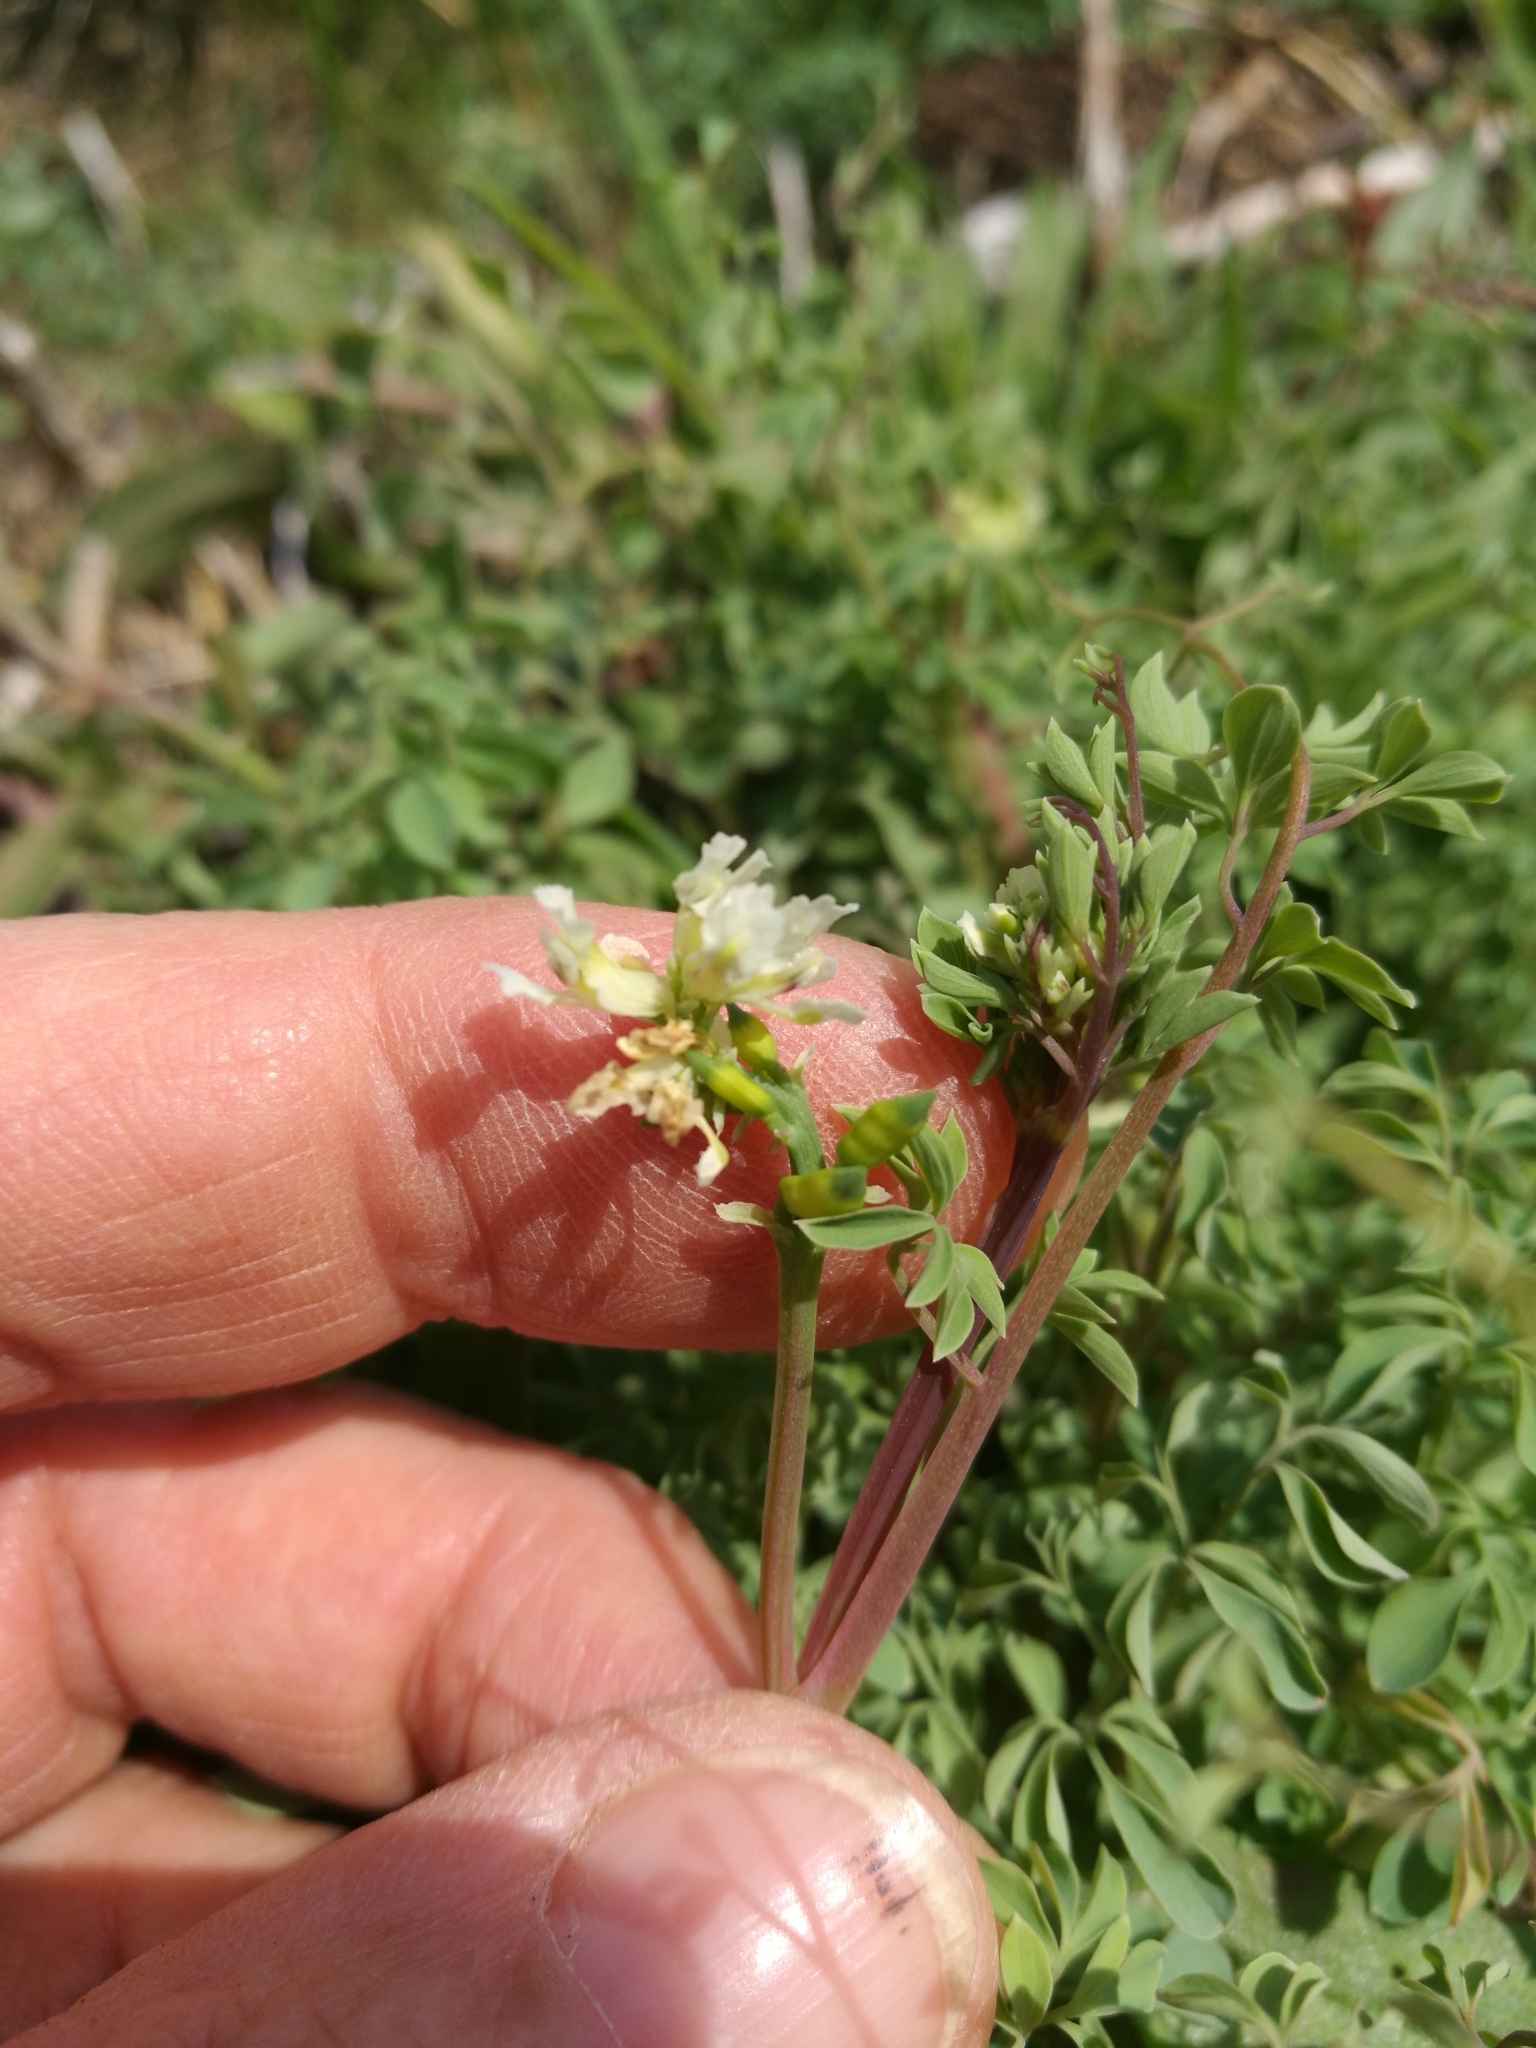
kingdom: Plantae
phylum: Tracheophyta
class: Magnoliopsida
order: Ranunculales
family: Papaveraceae
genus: Ceratocapnos
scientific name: Ceratocapnos claviculata
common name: Climbing corydalis
